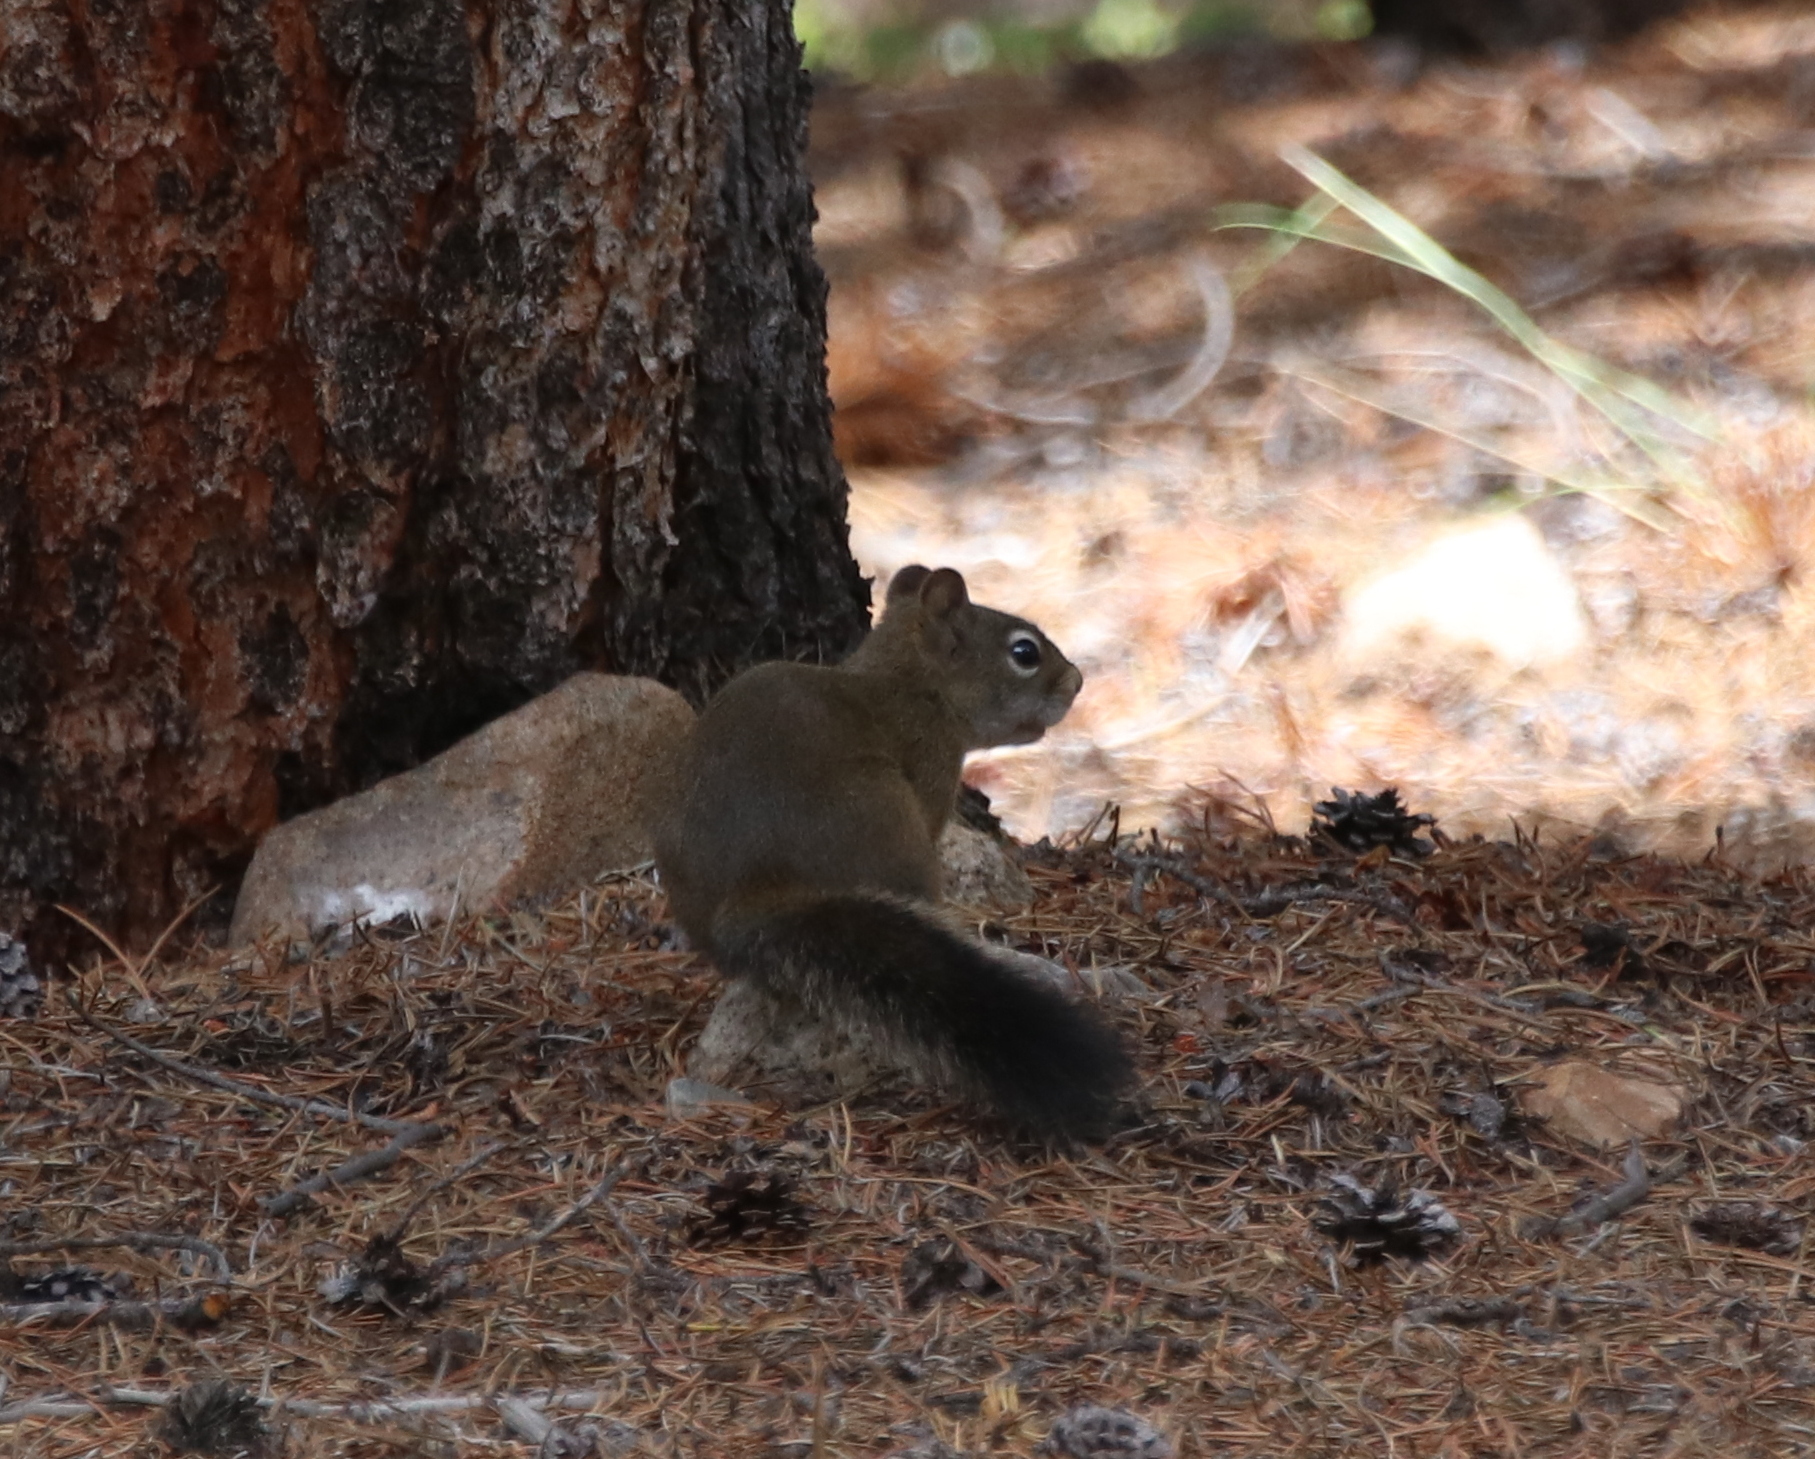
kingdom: Animalia
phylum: Chordata
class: Mammalia
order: Rodentia
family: Sciuridae
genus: Tamiasciurus
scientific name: Tamiasciurus hudsonicus
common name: Red squirrel
